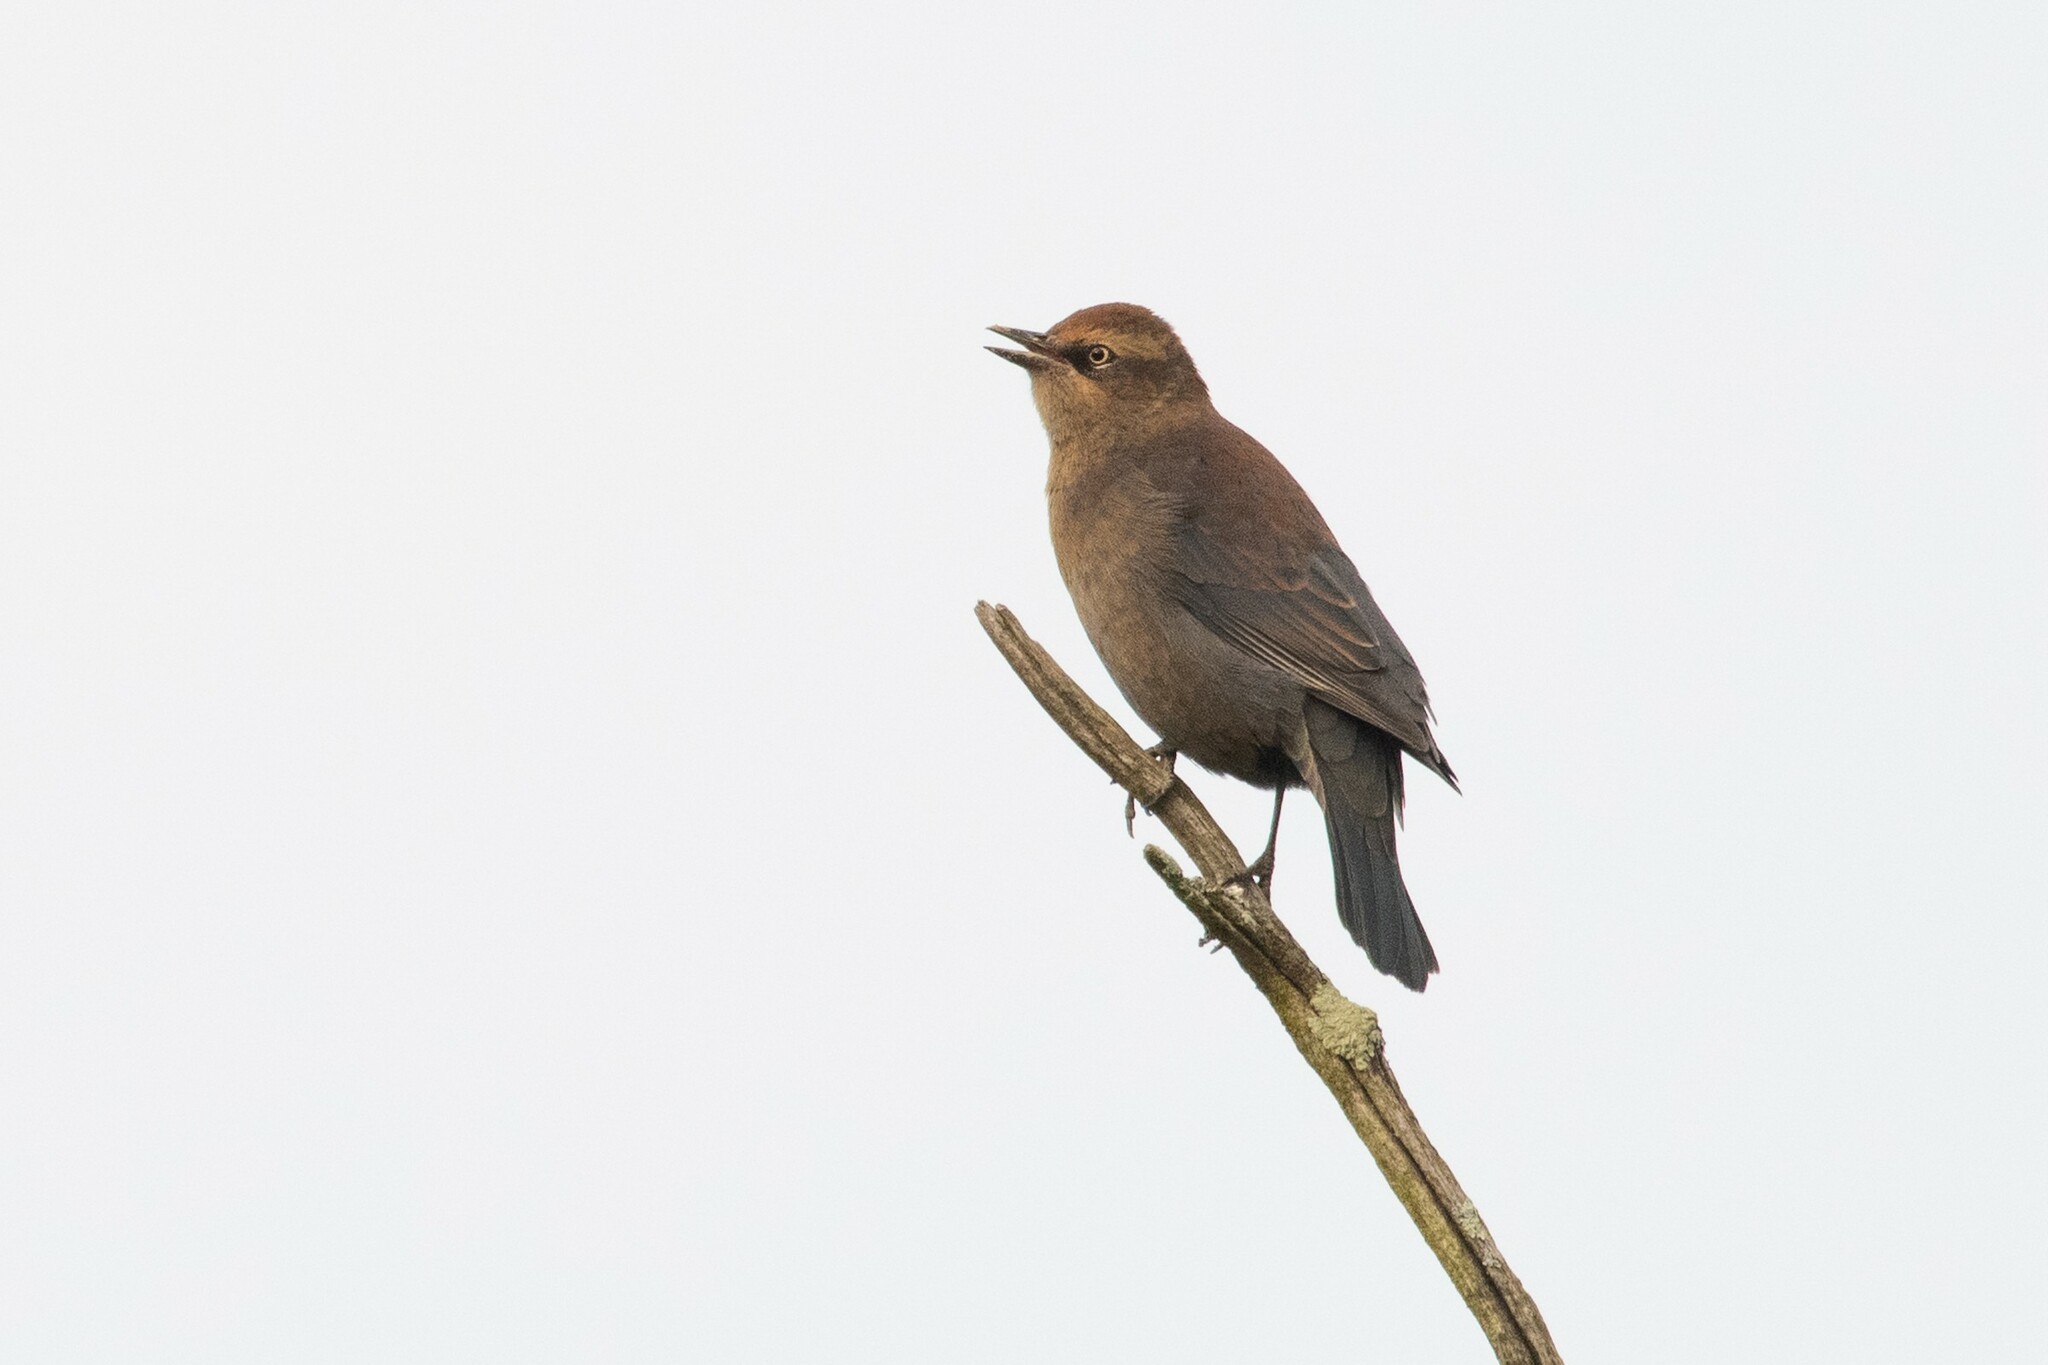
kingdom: Animalia
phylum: Chordata
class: Aves
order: Passeriformes
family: Icteridae
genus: Euphagus
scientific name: Euphagus carolinus
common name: Rusty blackbird
